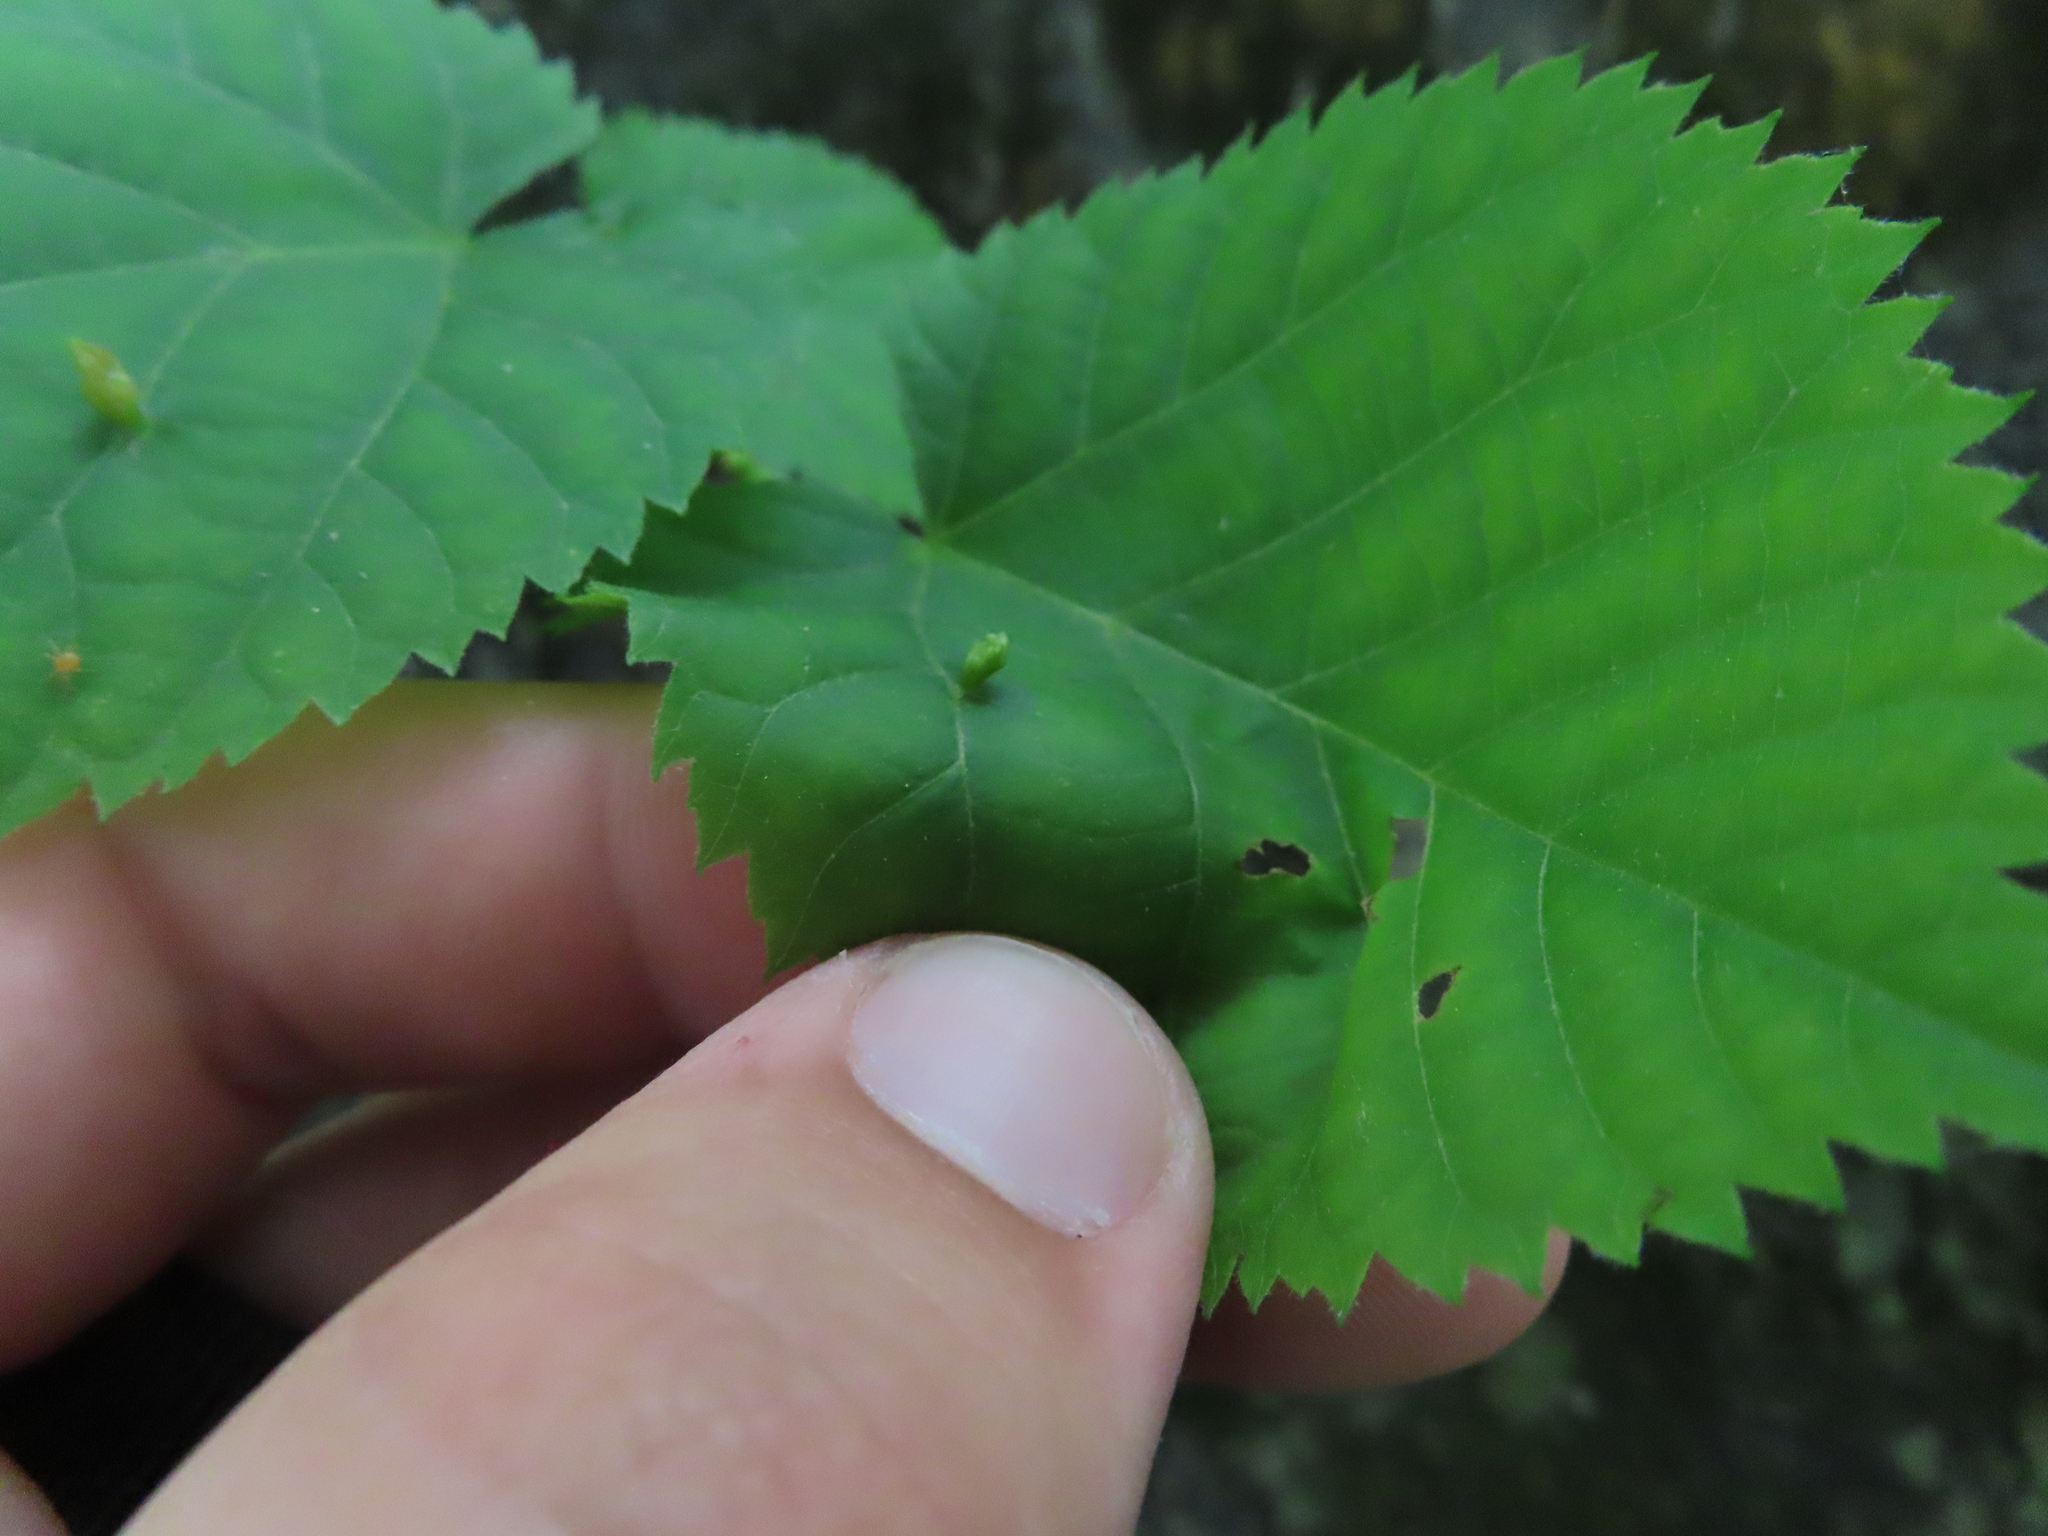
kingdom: Animalia
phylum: Arthropoda
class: Arachnida
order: Trombidiformes
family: Eriophyidae
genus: Eriophyes
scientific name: Eriophyes tiliae
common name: Red nail gall mite
